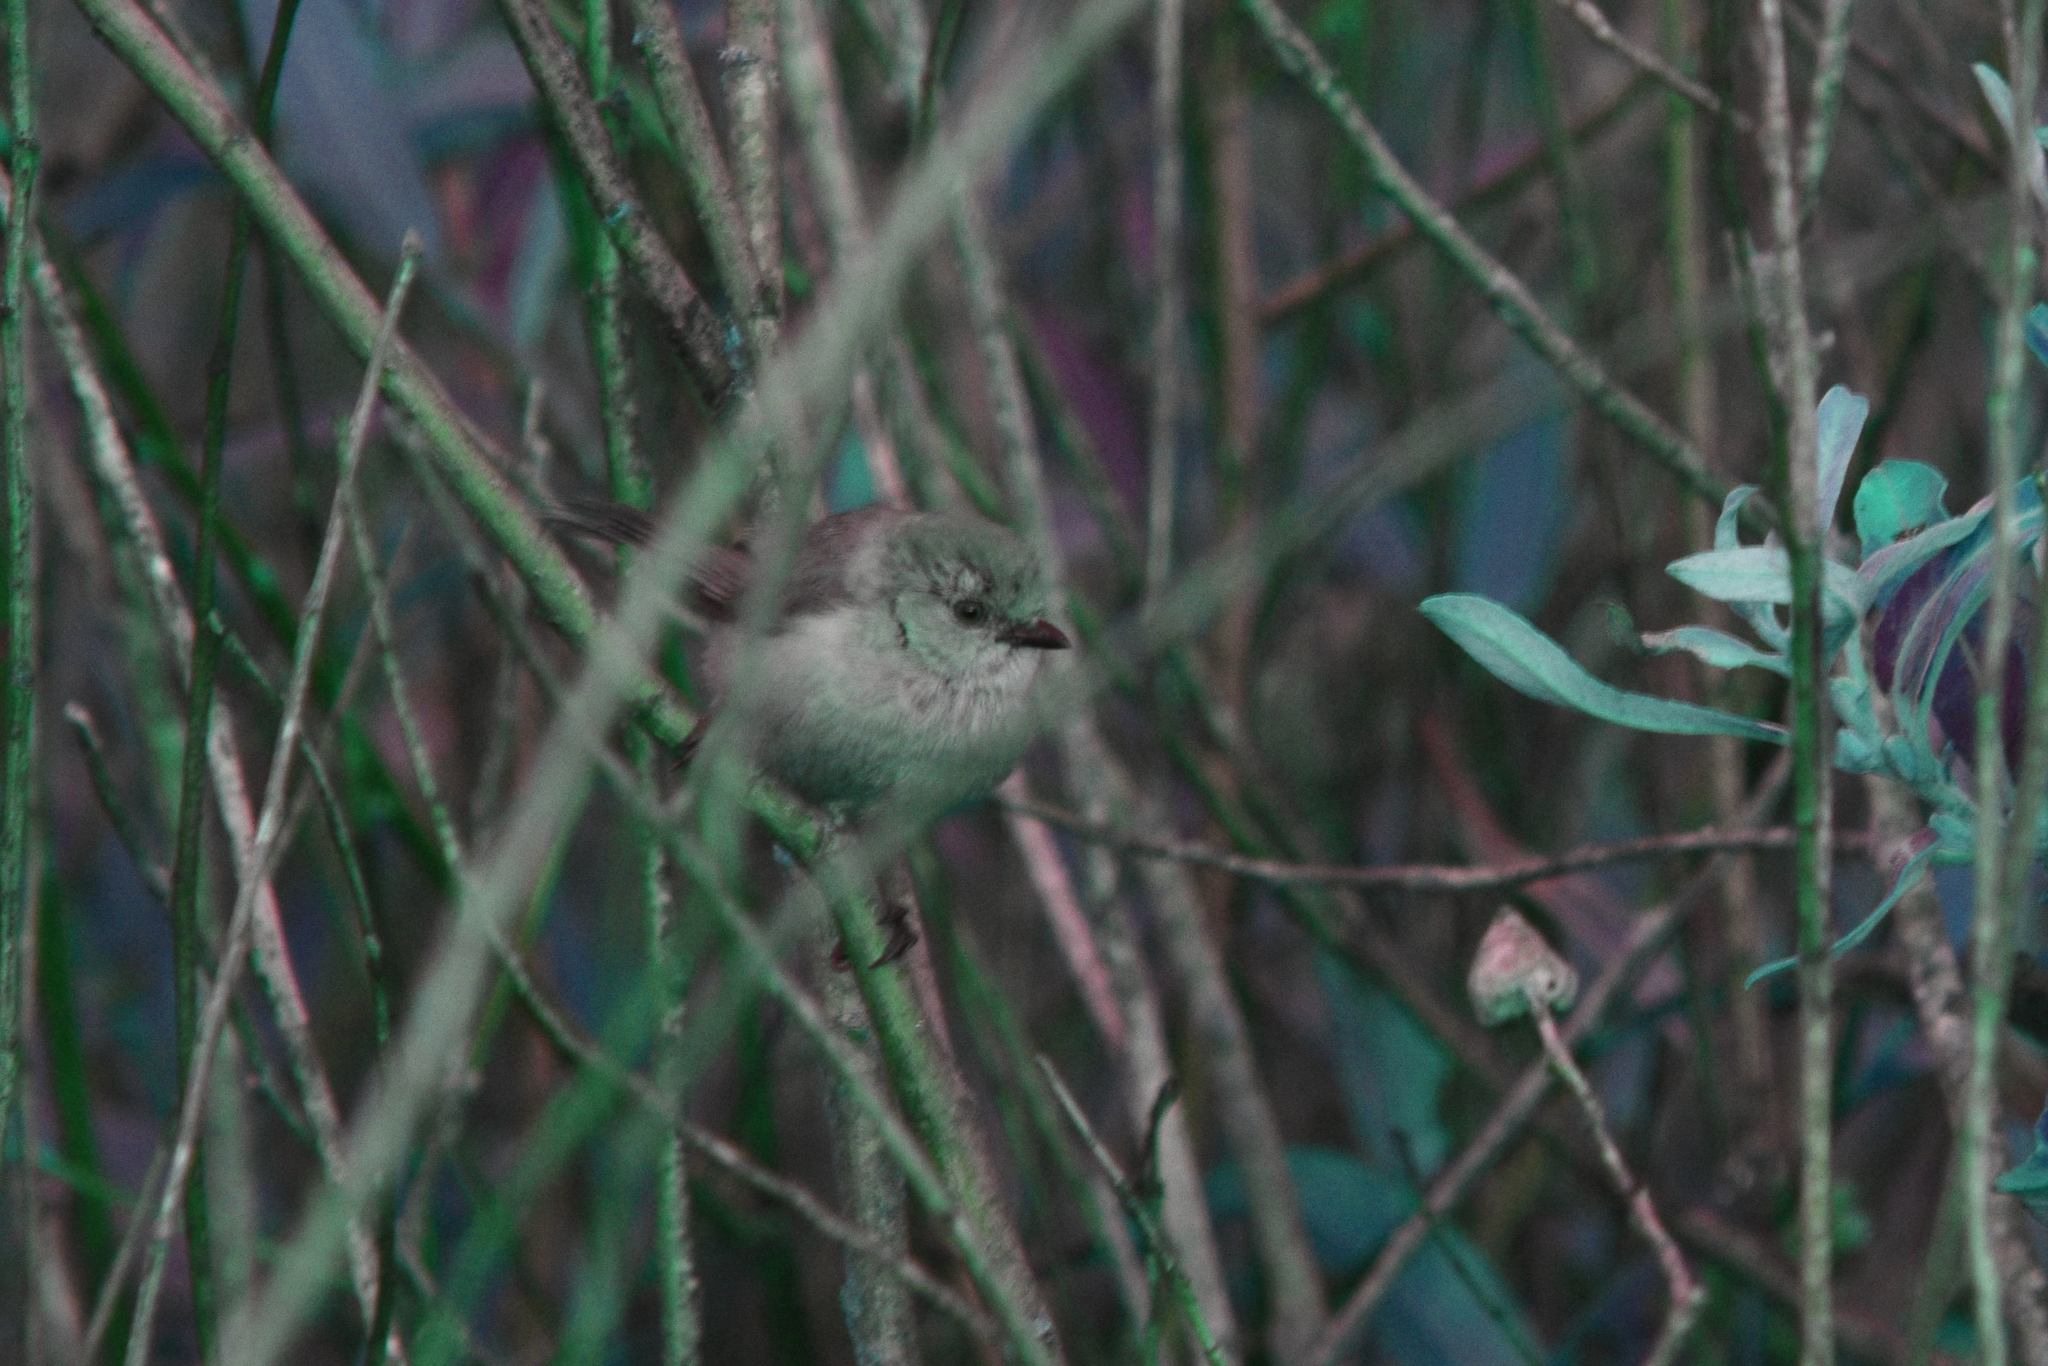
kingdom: Animalia
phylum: Chordata
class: Aves
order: Passeriformes
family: Aegithalidae
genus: Psaltriparus
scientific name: Psaltriparus minimus
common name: American bushtit
